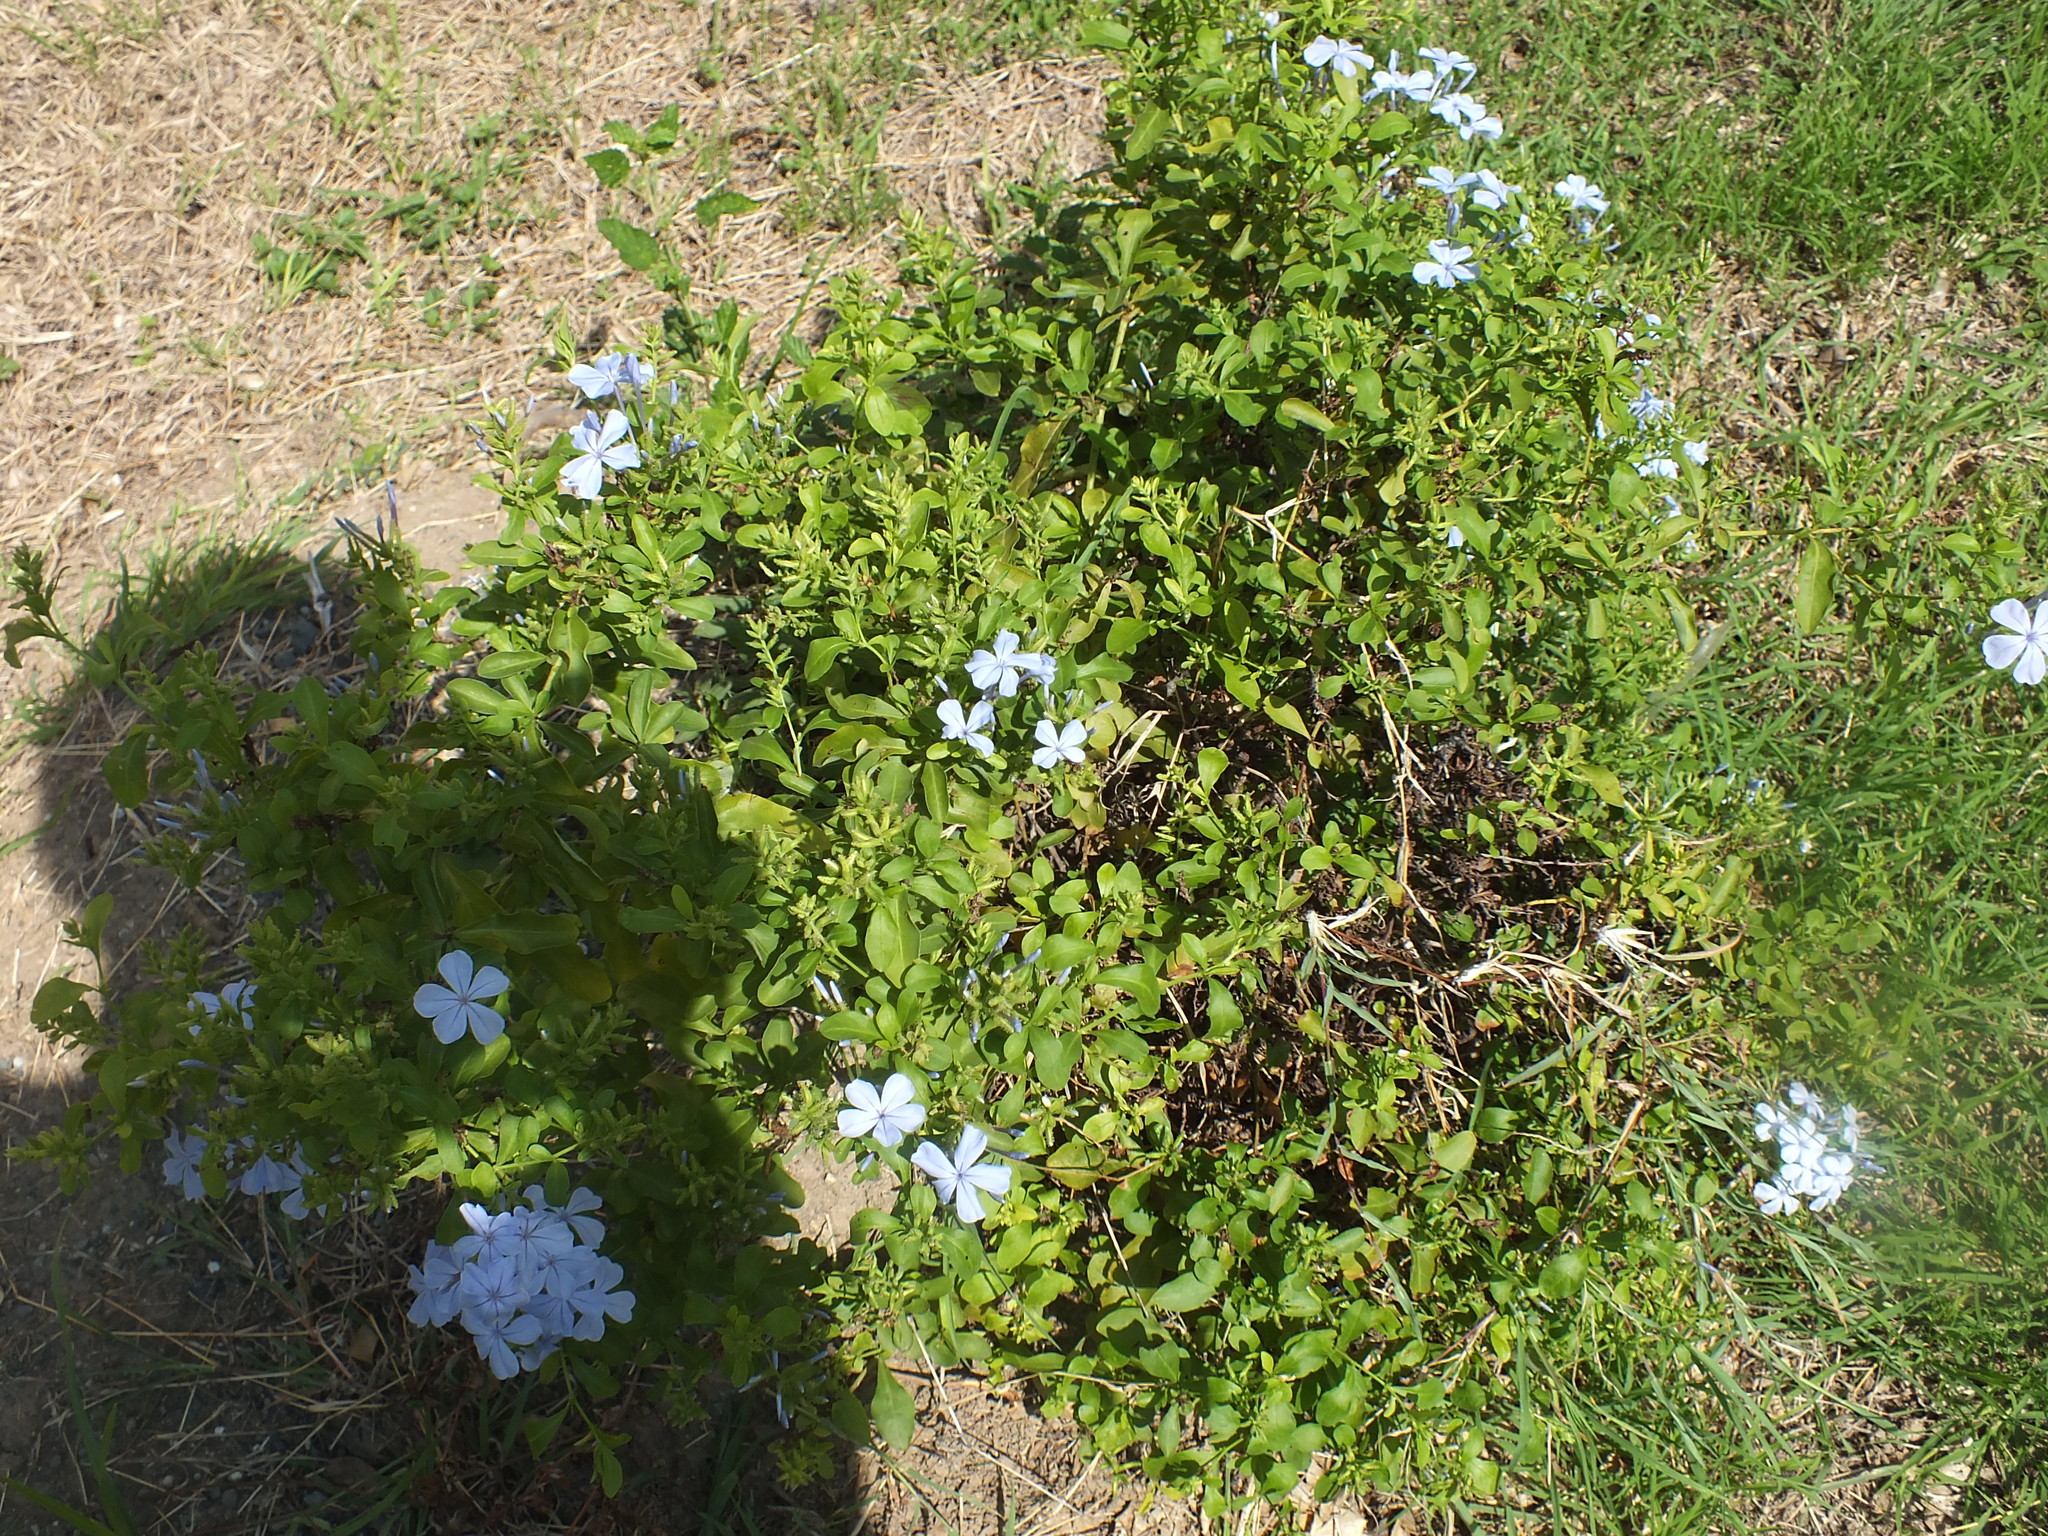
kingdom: Plantae
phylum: Tracheophyta
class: Magnoliopsida
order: Caryophyllales
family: Plumbaginaceae
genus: Plumbago
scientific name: Plumbago auriculata
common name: Cape leadwort
